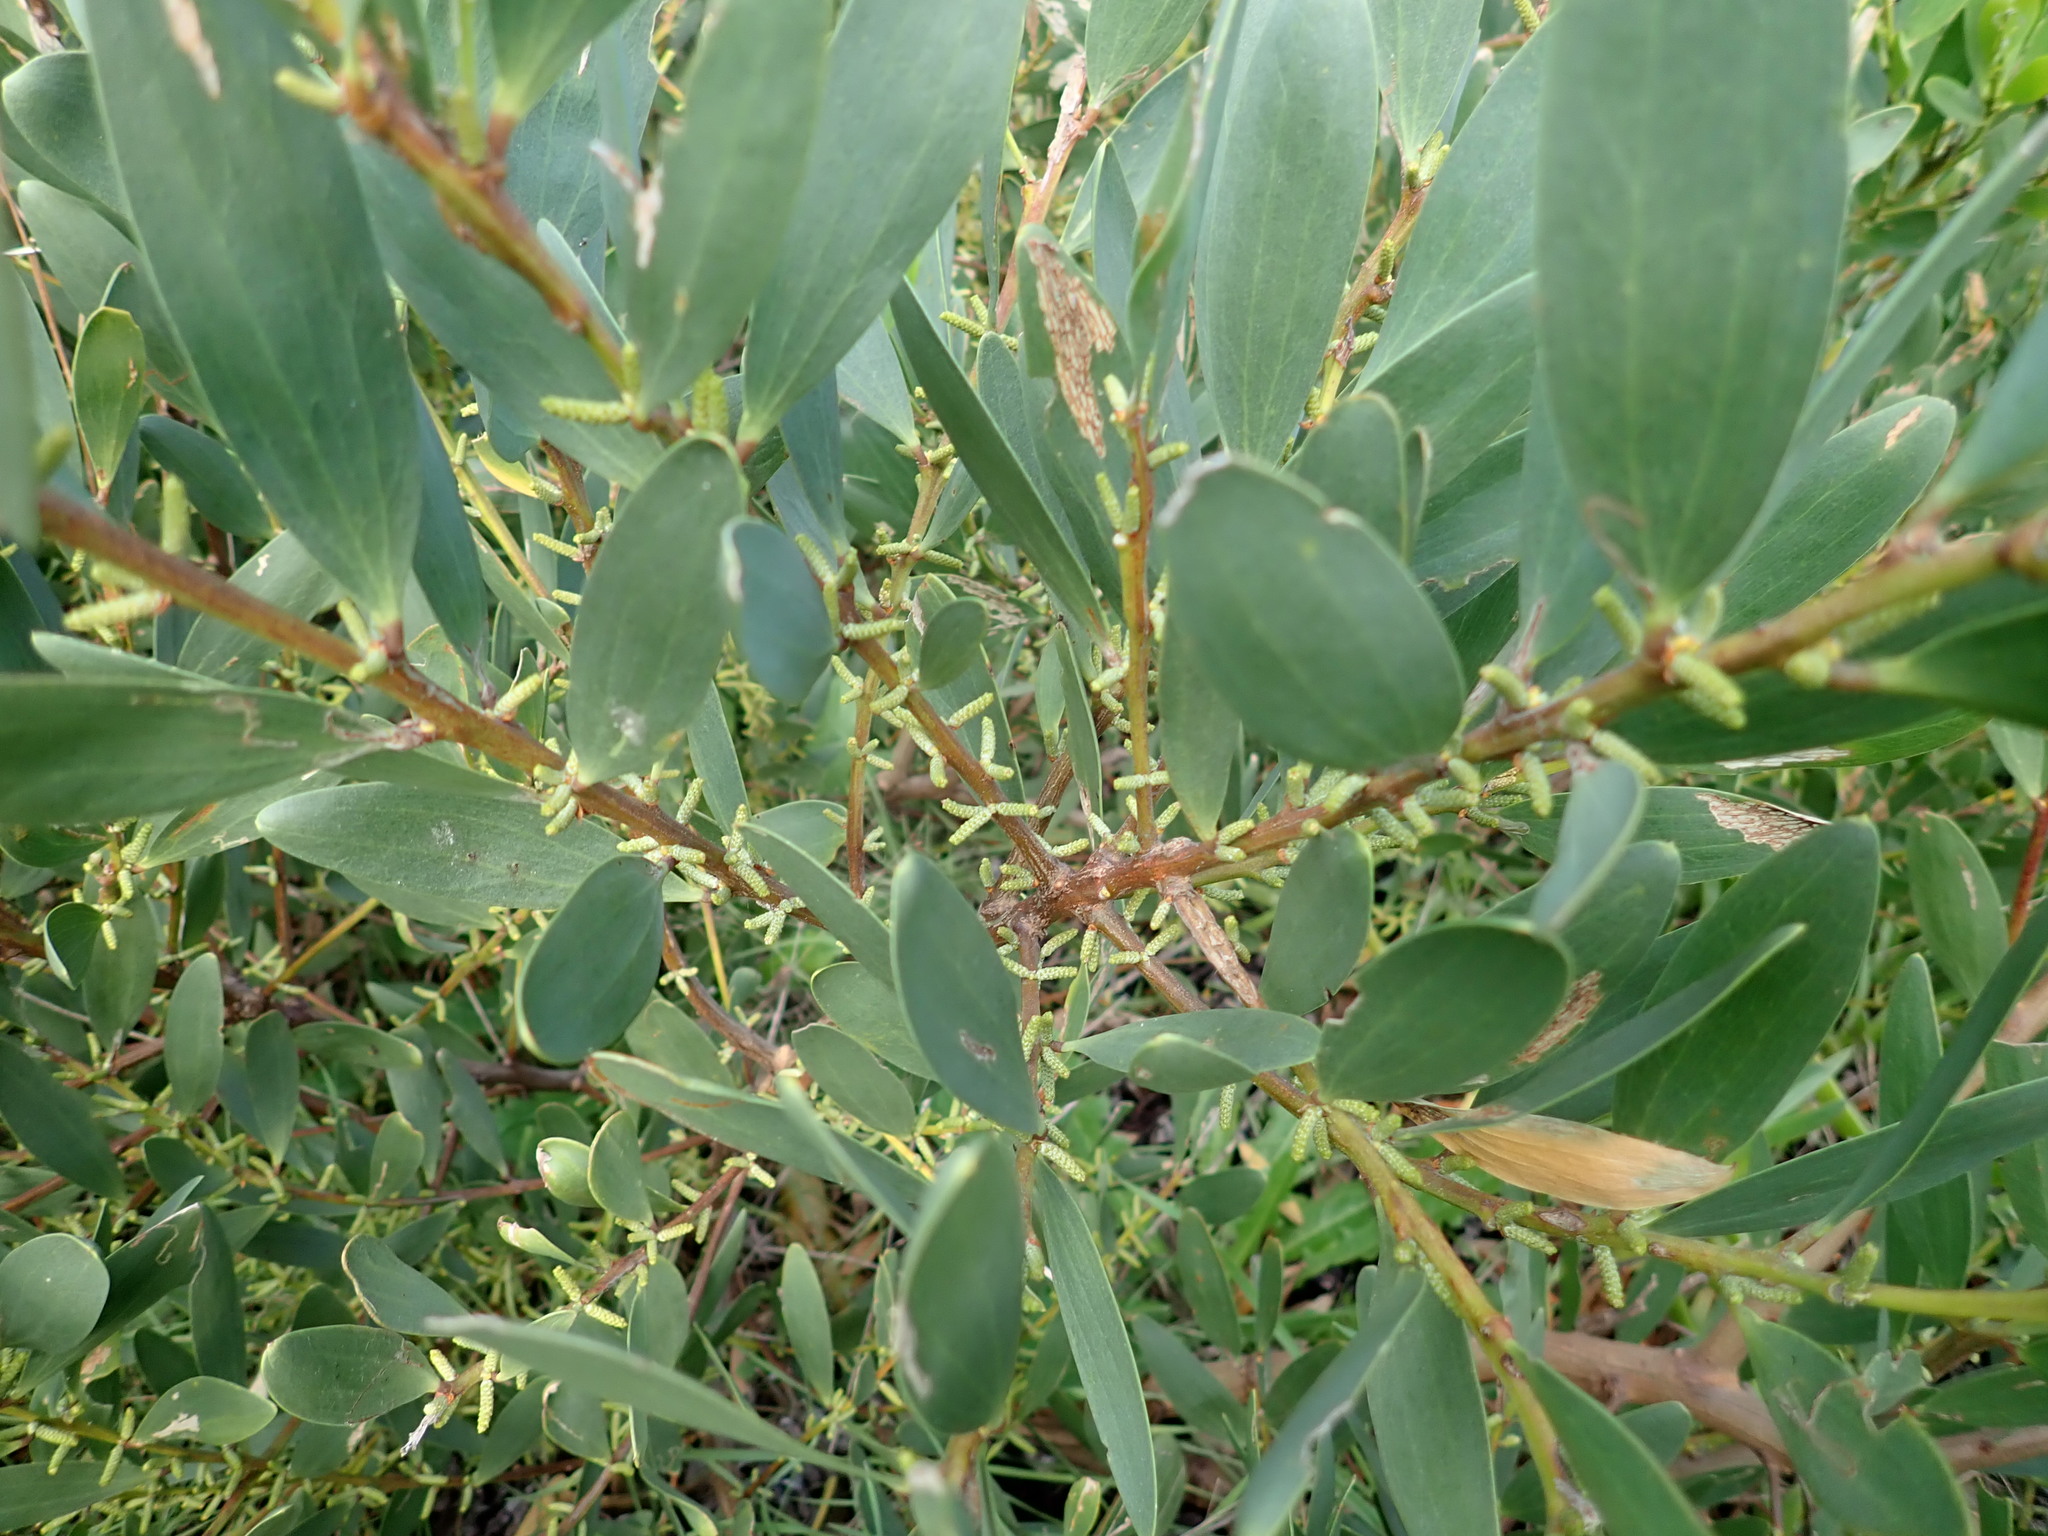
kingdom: Plantae
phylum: Tracheophyta
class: Magnoliopsida
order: Fabales
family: Fabaceae
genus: Acacia
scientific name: Acacia longifolia
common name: Sydney golden wattle
